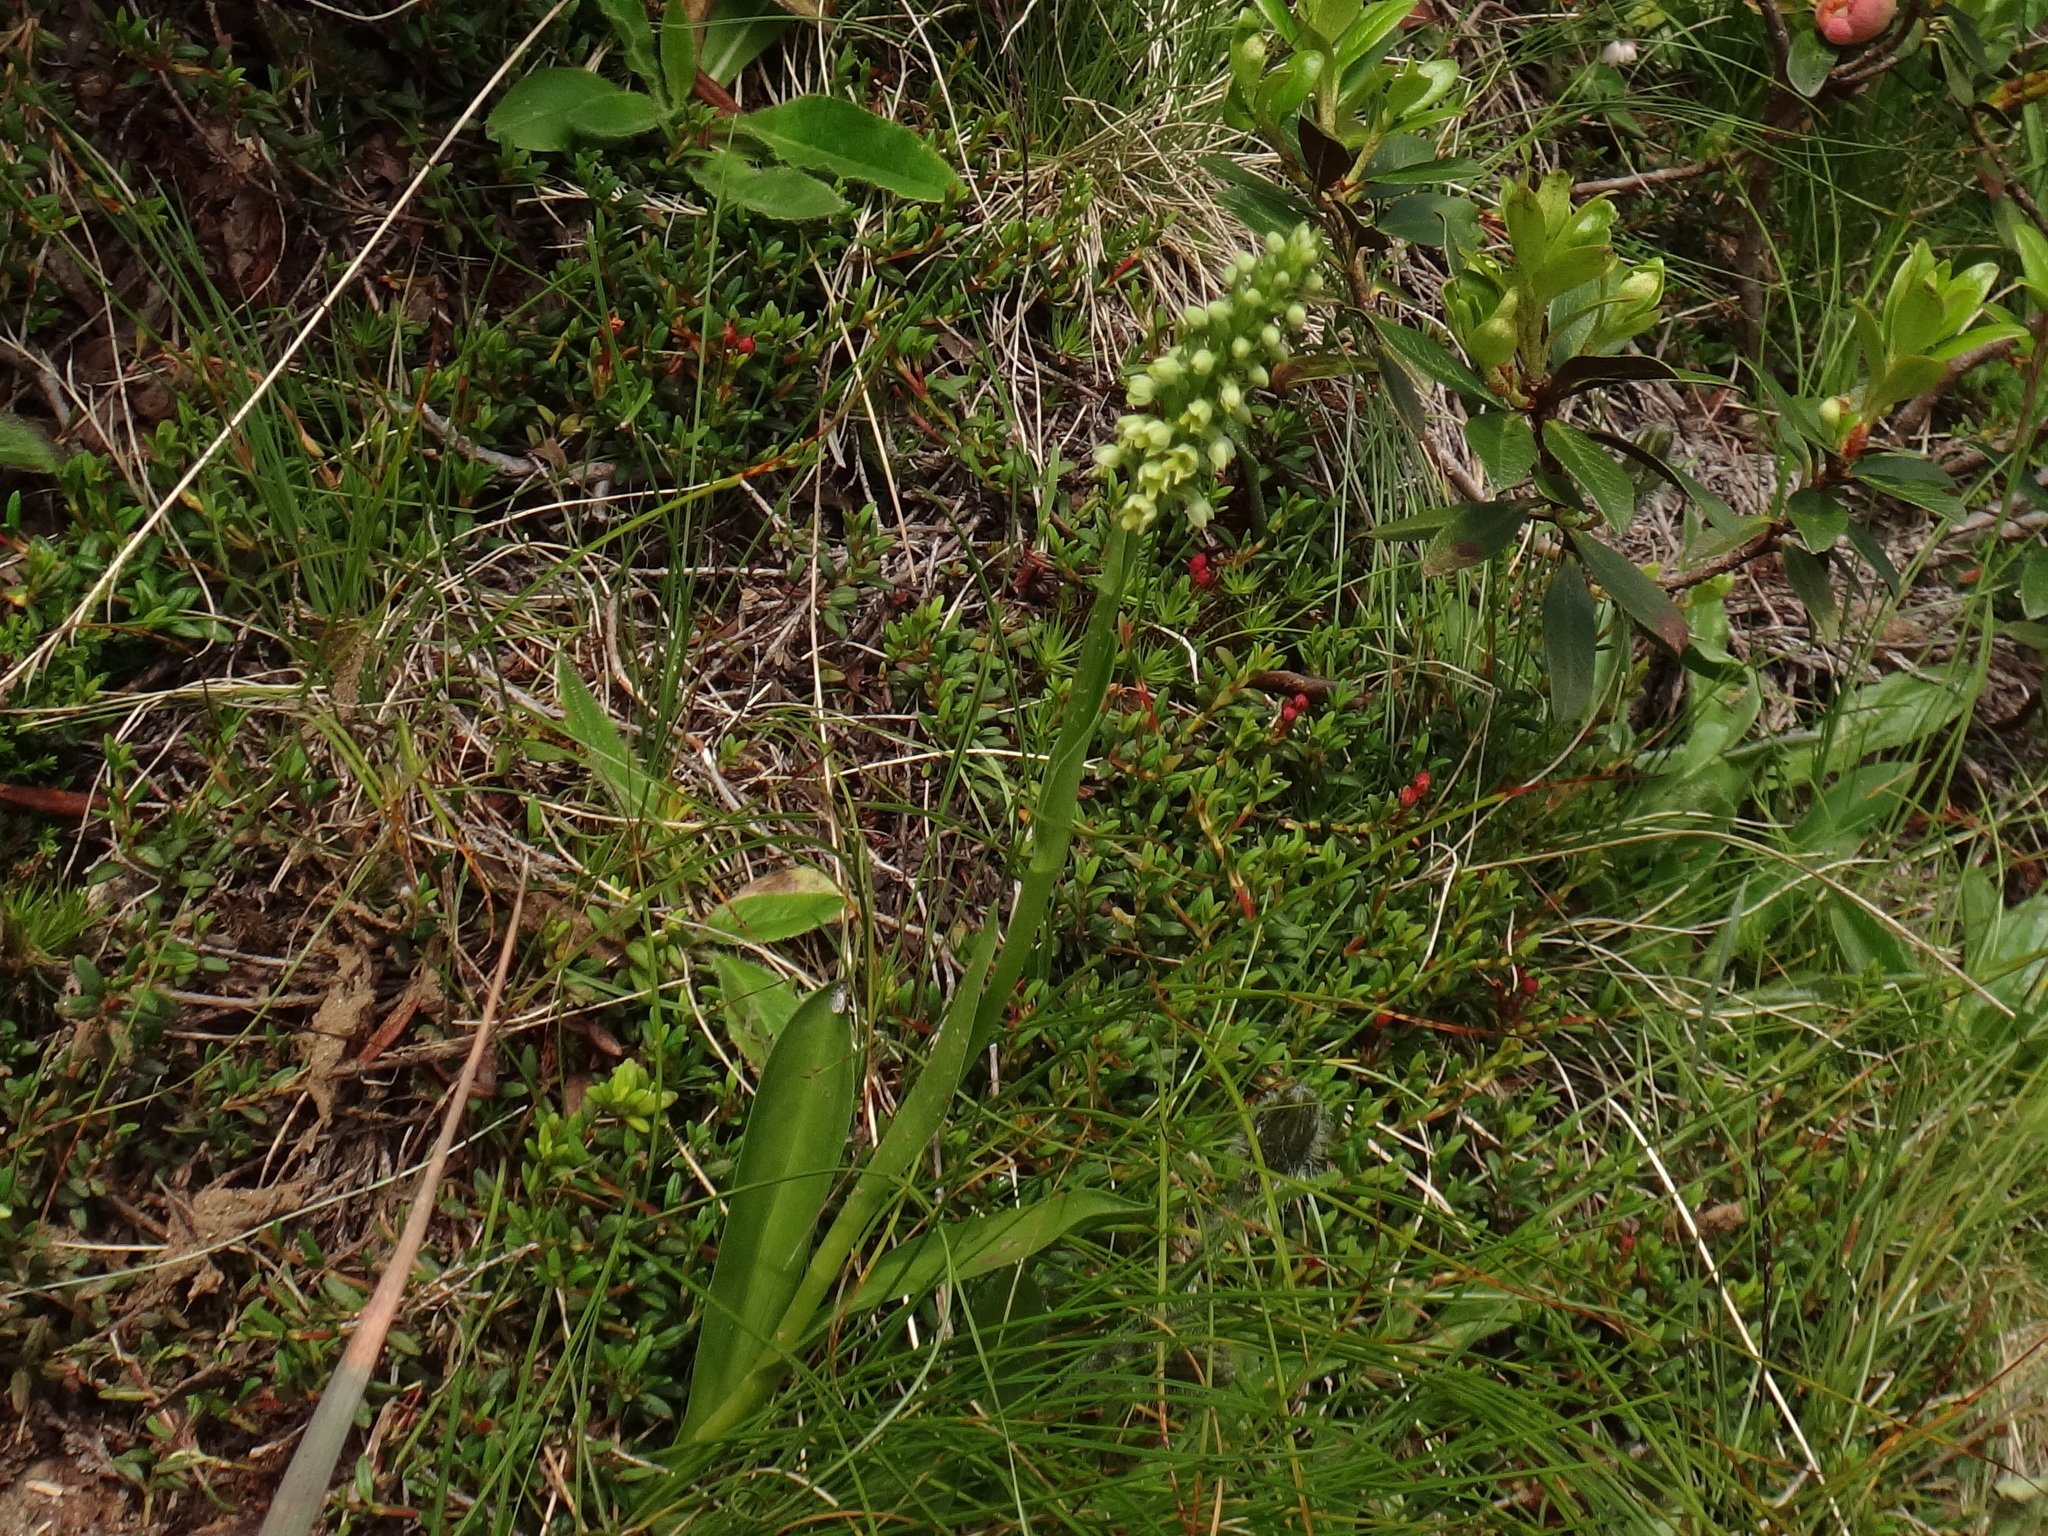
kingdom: Plantae
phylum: Tracheophyta
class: Liliopsida
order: Asparagales
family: Orchidaceae
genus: Pseudorchis
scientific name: Pseudorchis albida
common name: Small-white orchid
